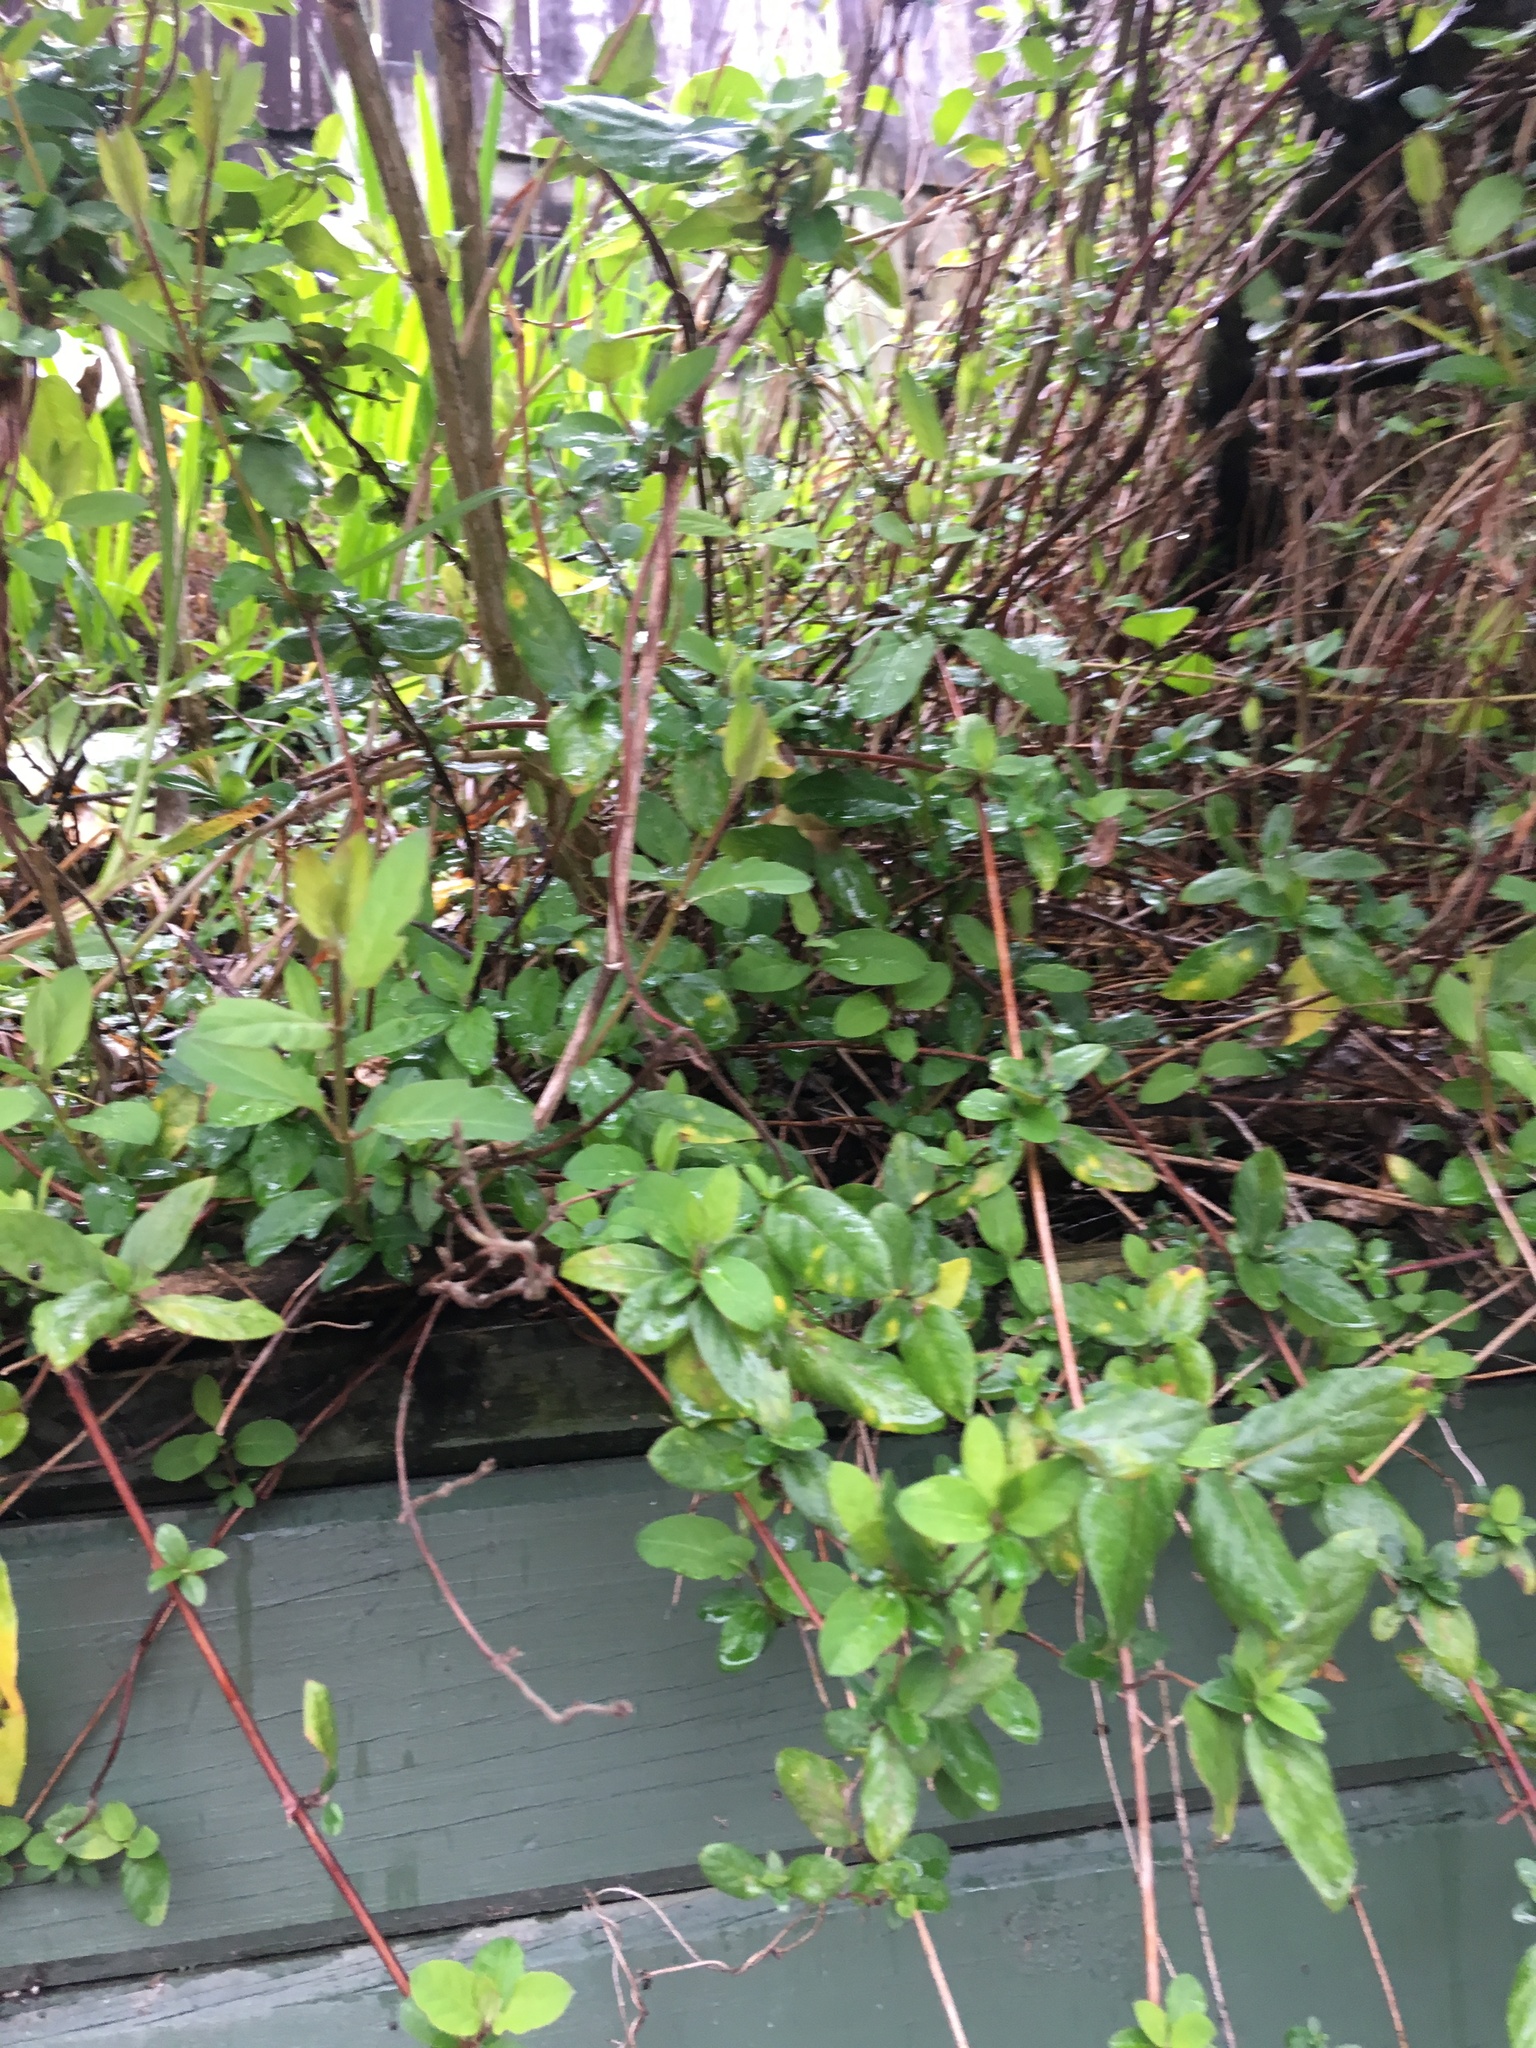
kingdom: Plantae
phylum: Tracheophyta
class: Magnoliopsida
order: Dipsacales
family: Caprifoliaceae
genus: Lonicera
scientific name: Lonicera japonica
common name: Japanese honeysuckle
